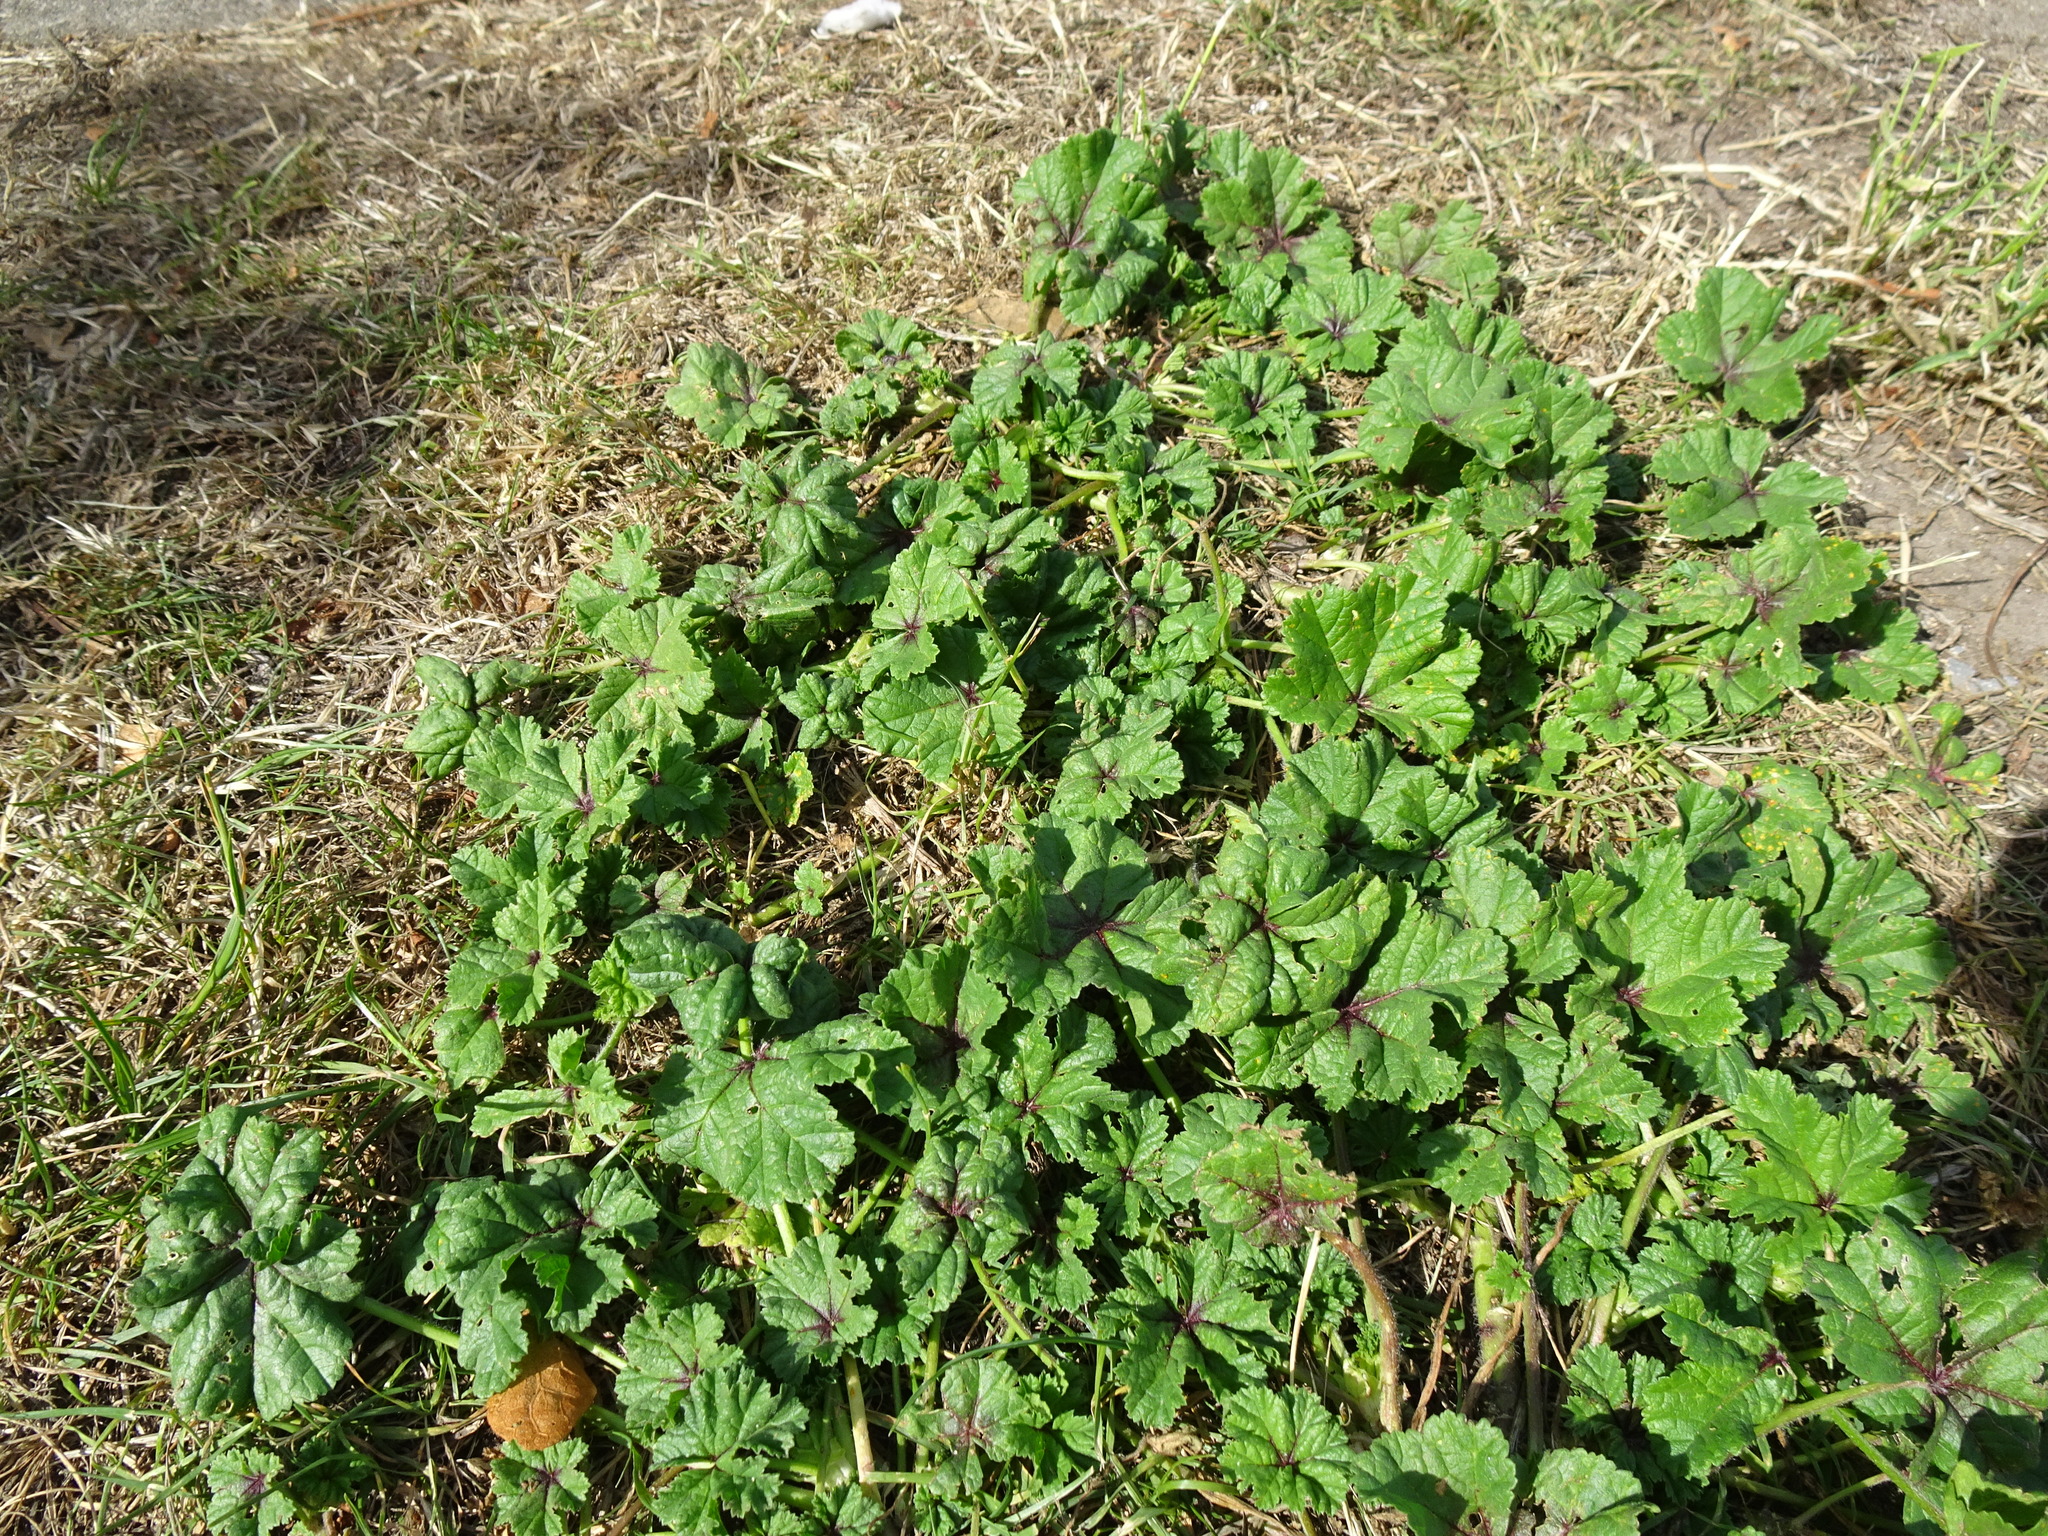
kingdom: Plantae
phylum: Tracheophyta
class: Magnoliopsida
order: Malvales
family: Malvaceae
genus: Malva
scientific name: Malva sylvestris
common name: Common mallow
